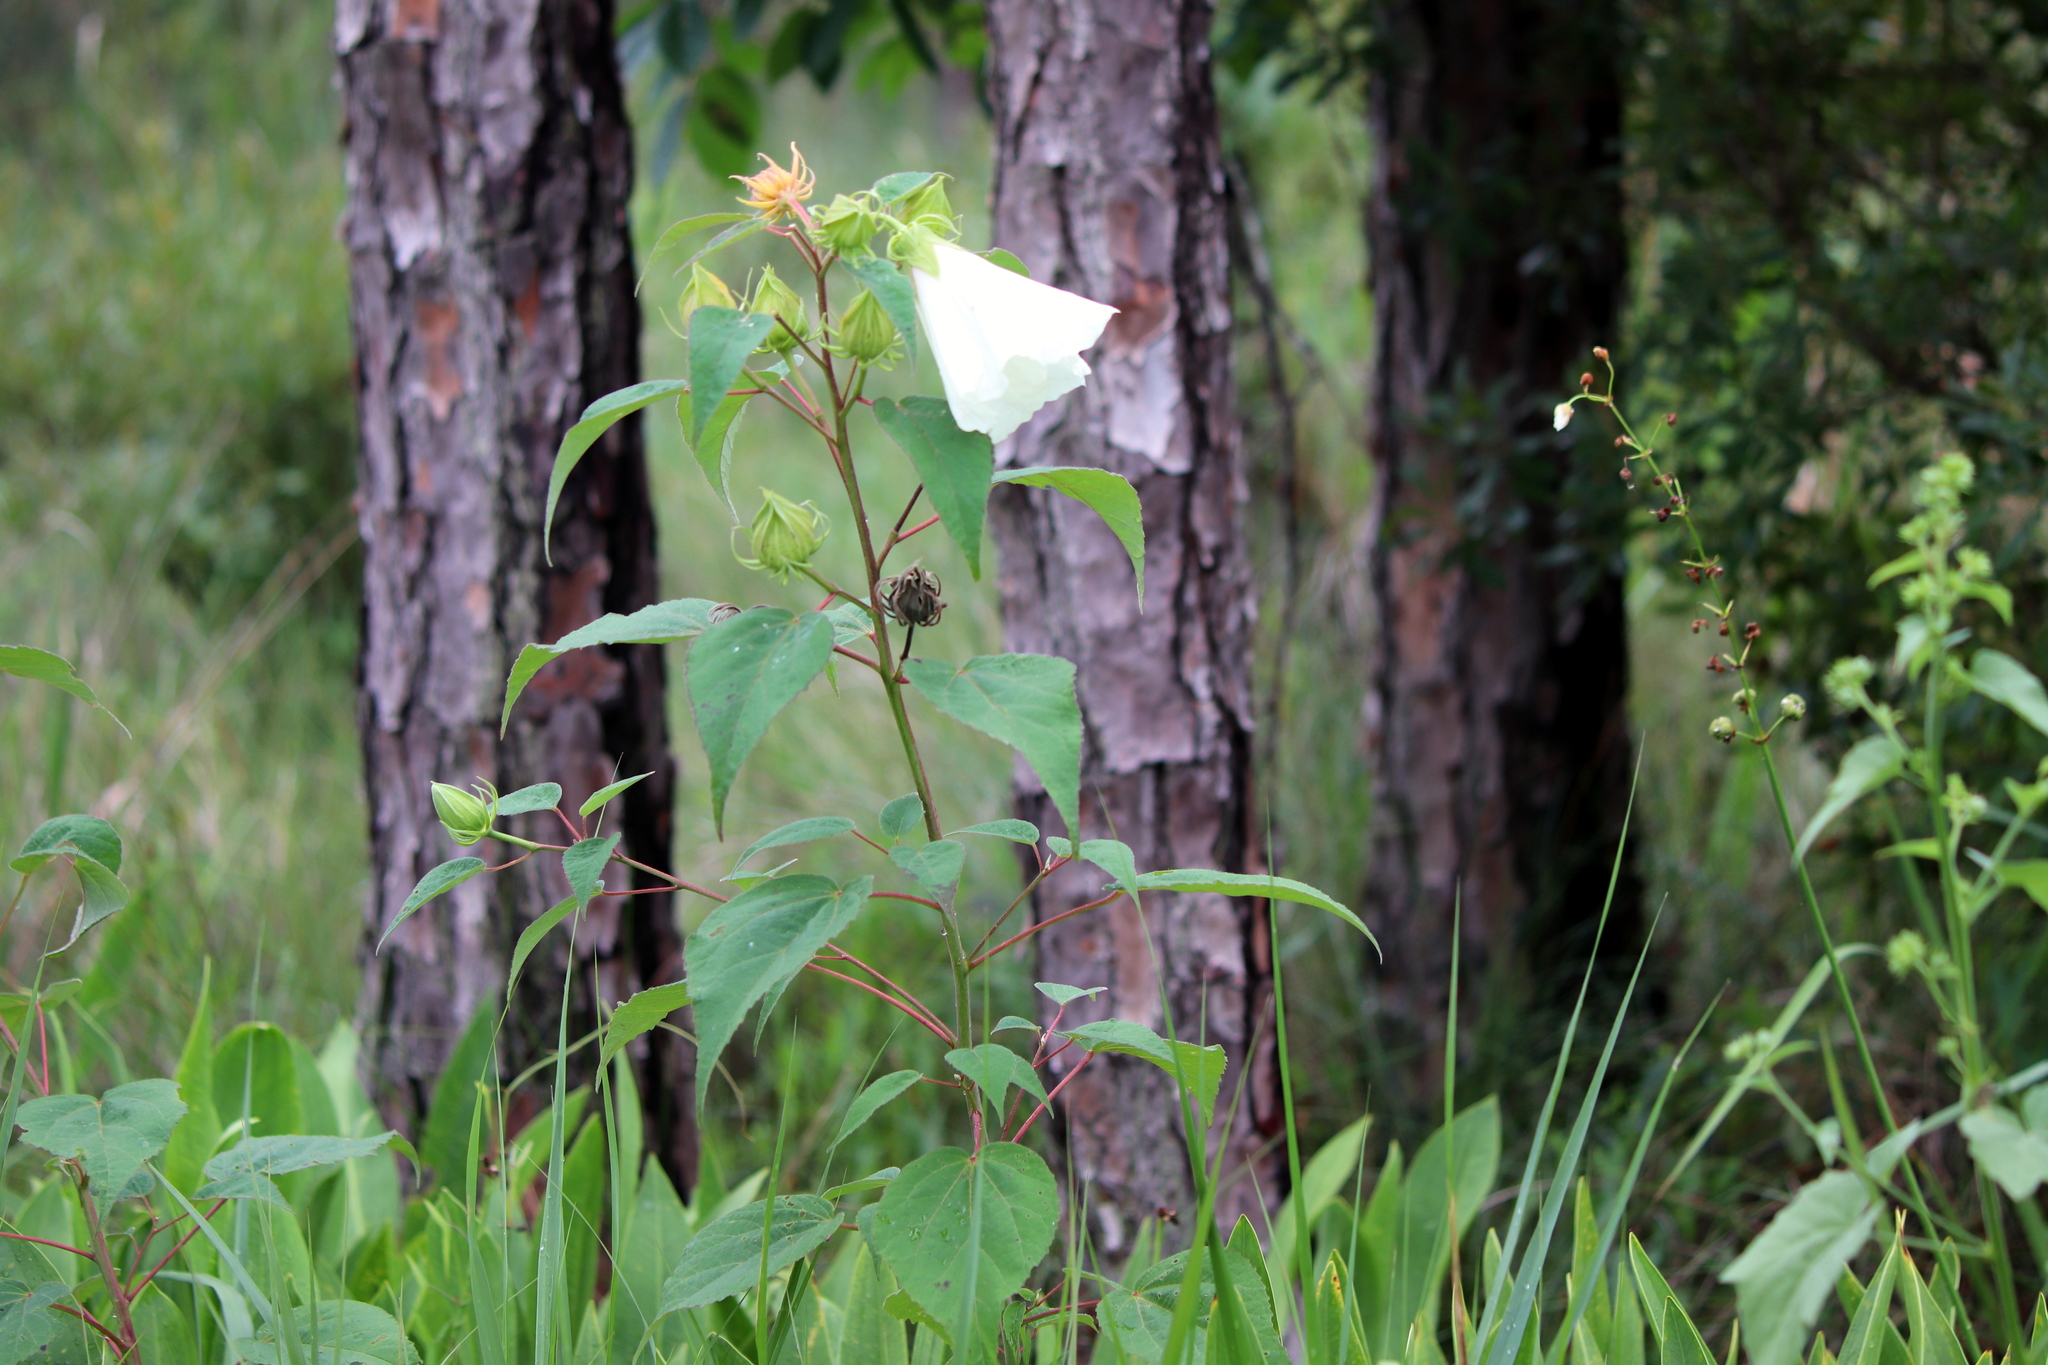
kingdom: Plantae
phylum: Tracheophyta
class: Magnoliopsida
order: Malvales
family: Malvaceae
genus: Hibiscus
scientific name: Hibiscus moscheutos
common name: Common rose-mallow
